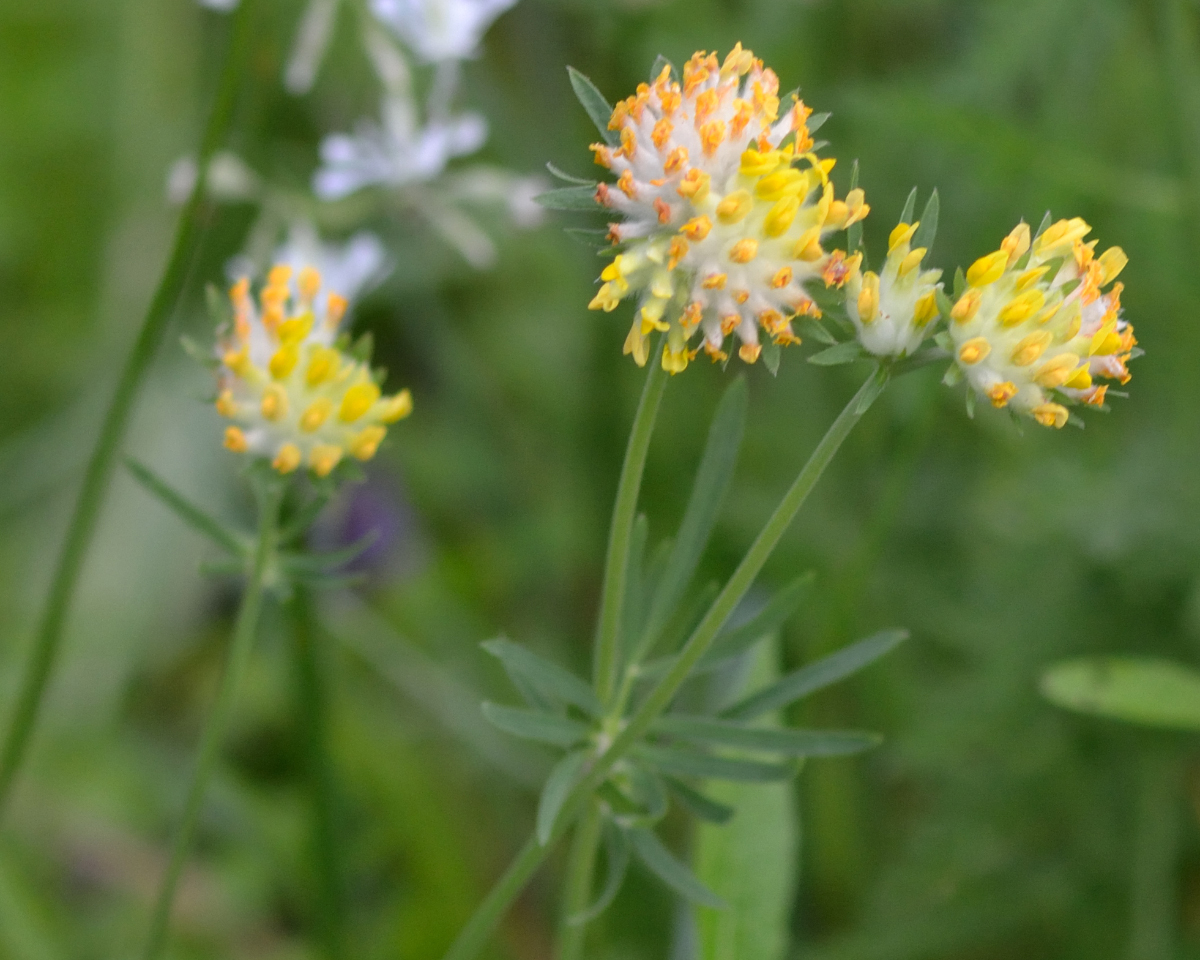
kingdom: Plantae
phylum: Tracheophyta
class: Magnoliopsida
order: Fabales
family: Fabaceae
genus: Anthyllis
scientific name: Anthyllis vulneraria
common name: Kidney vetch
